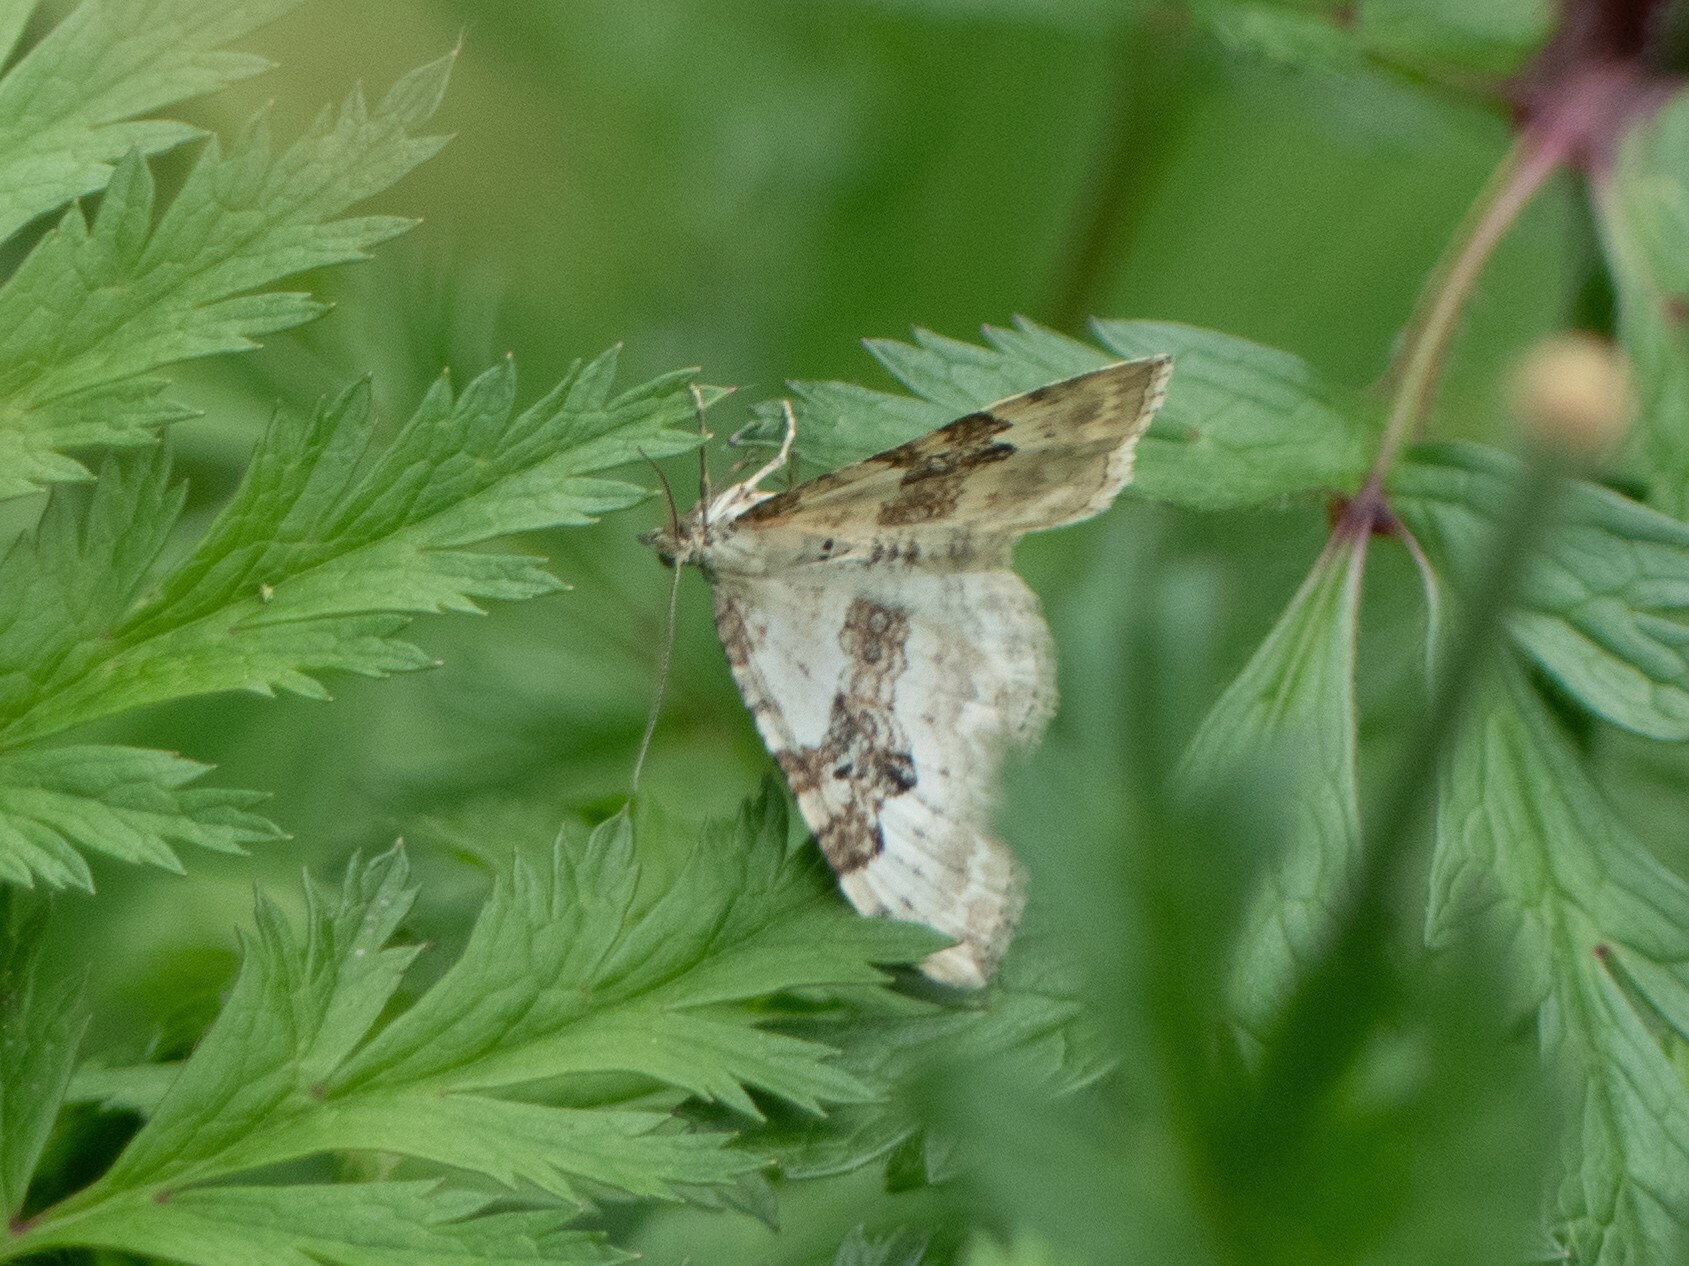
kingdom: Animalia
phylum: Arthropoda
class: Insecta
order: Lepidoptera
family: Geometridae
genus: Xanthorhoe
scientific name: Xanthorhoe montanata
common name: Silver-ground carpet
